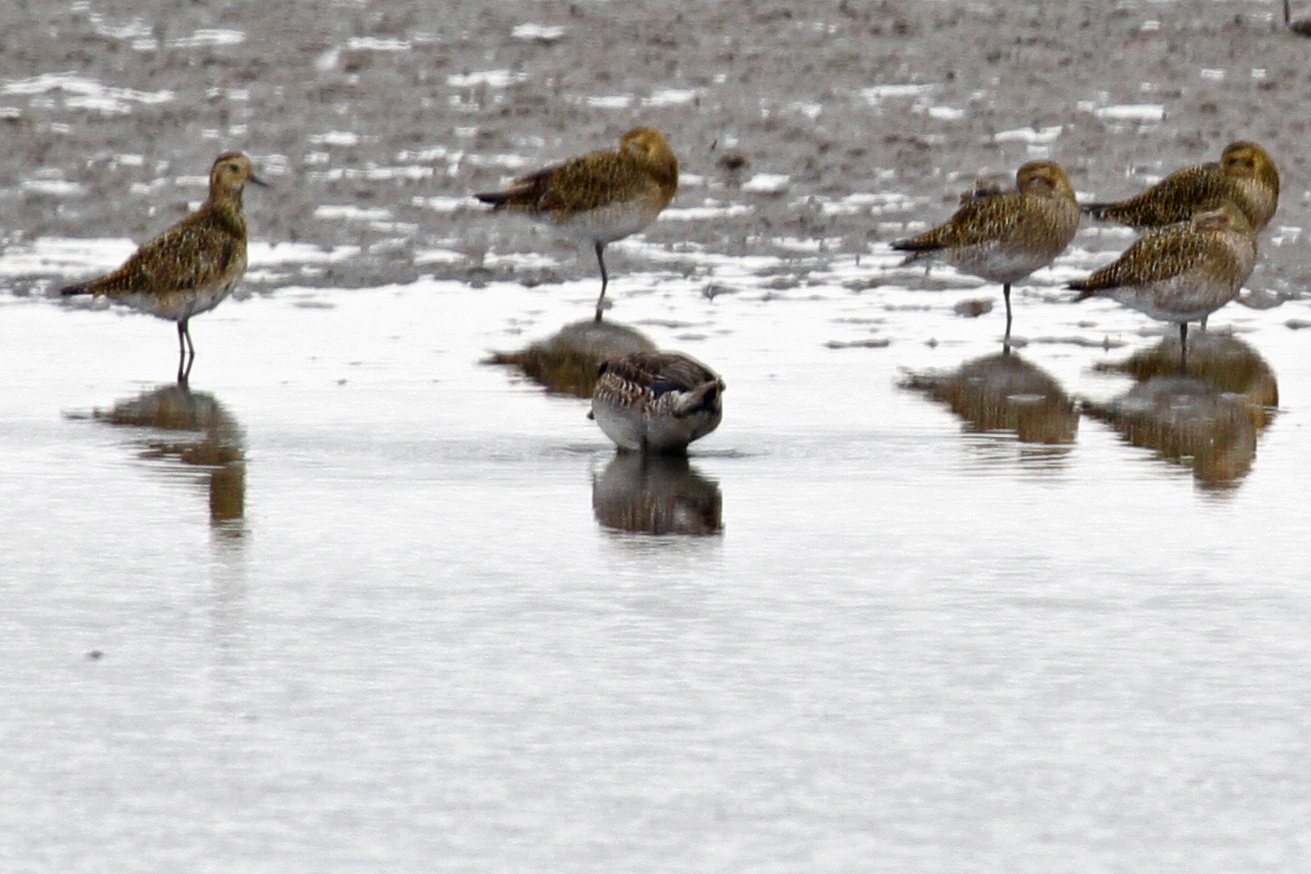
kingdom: Animalia
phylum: Chordata
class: Aves
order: Charadriiformes
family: Charadriidae
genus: Pluvialis
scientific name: Pluvialis apricaria
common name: European golden plover
